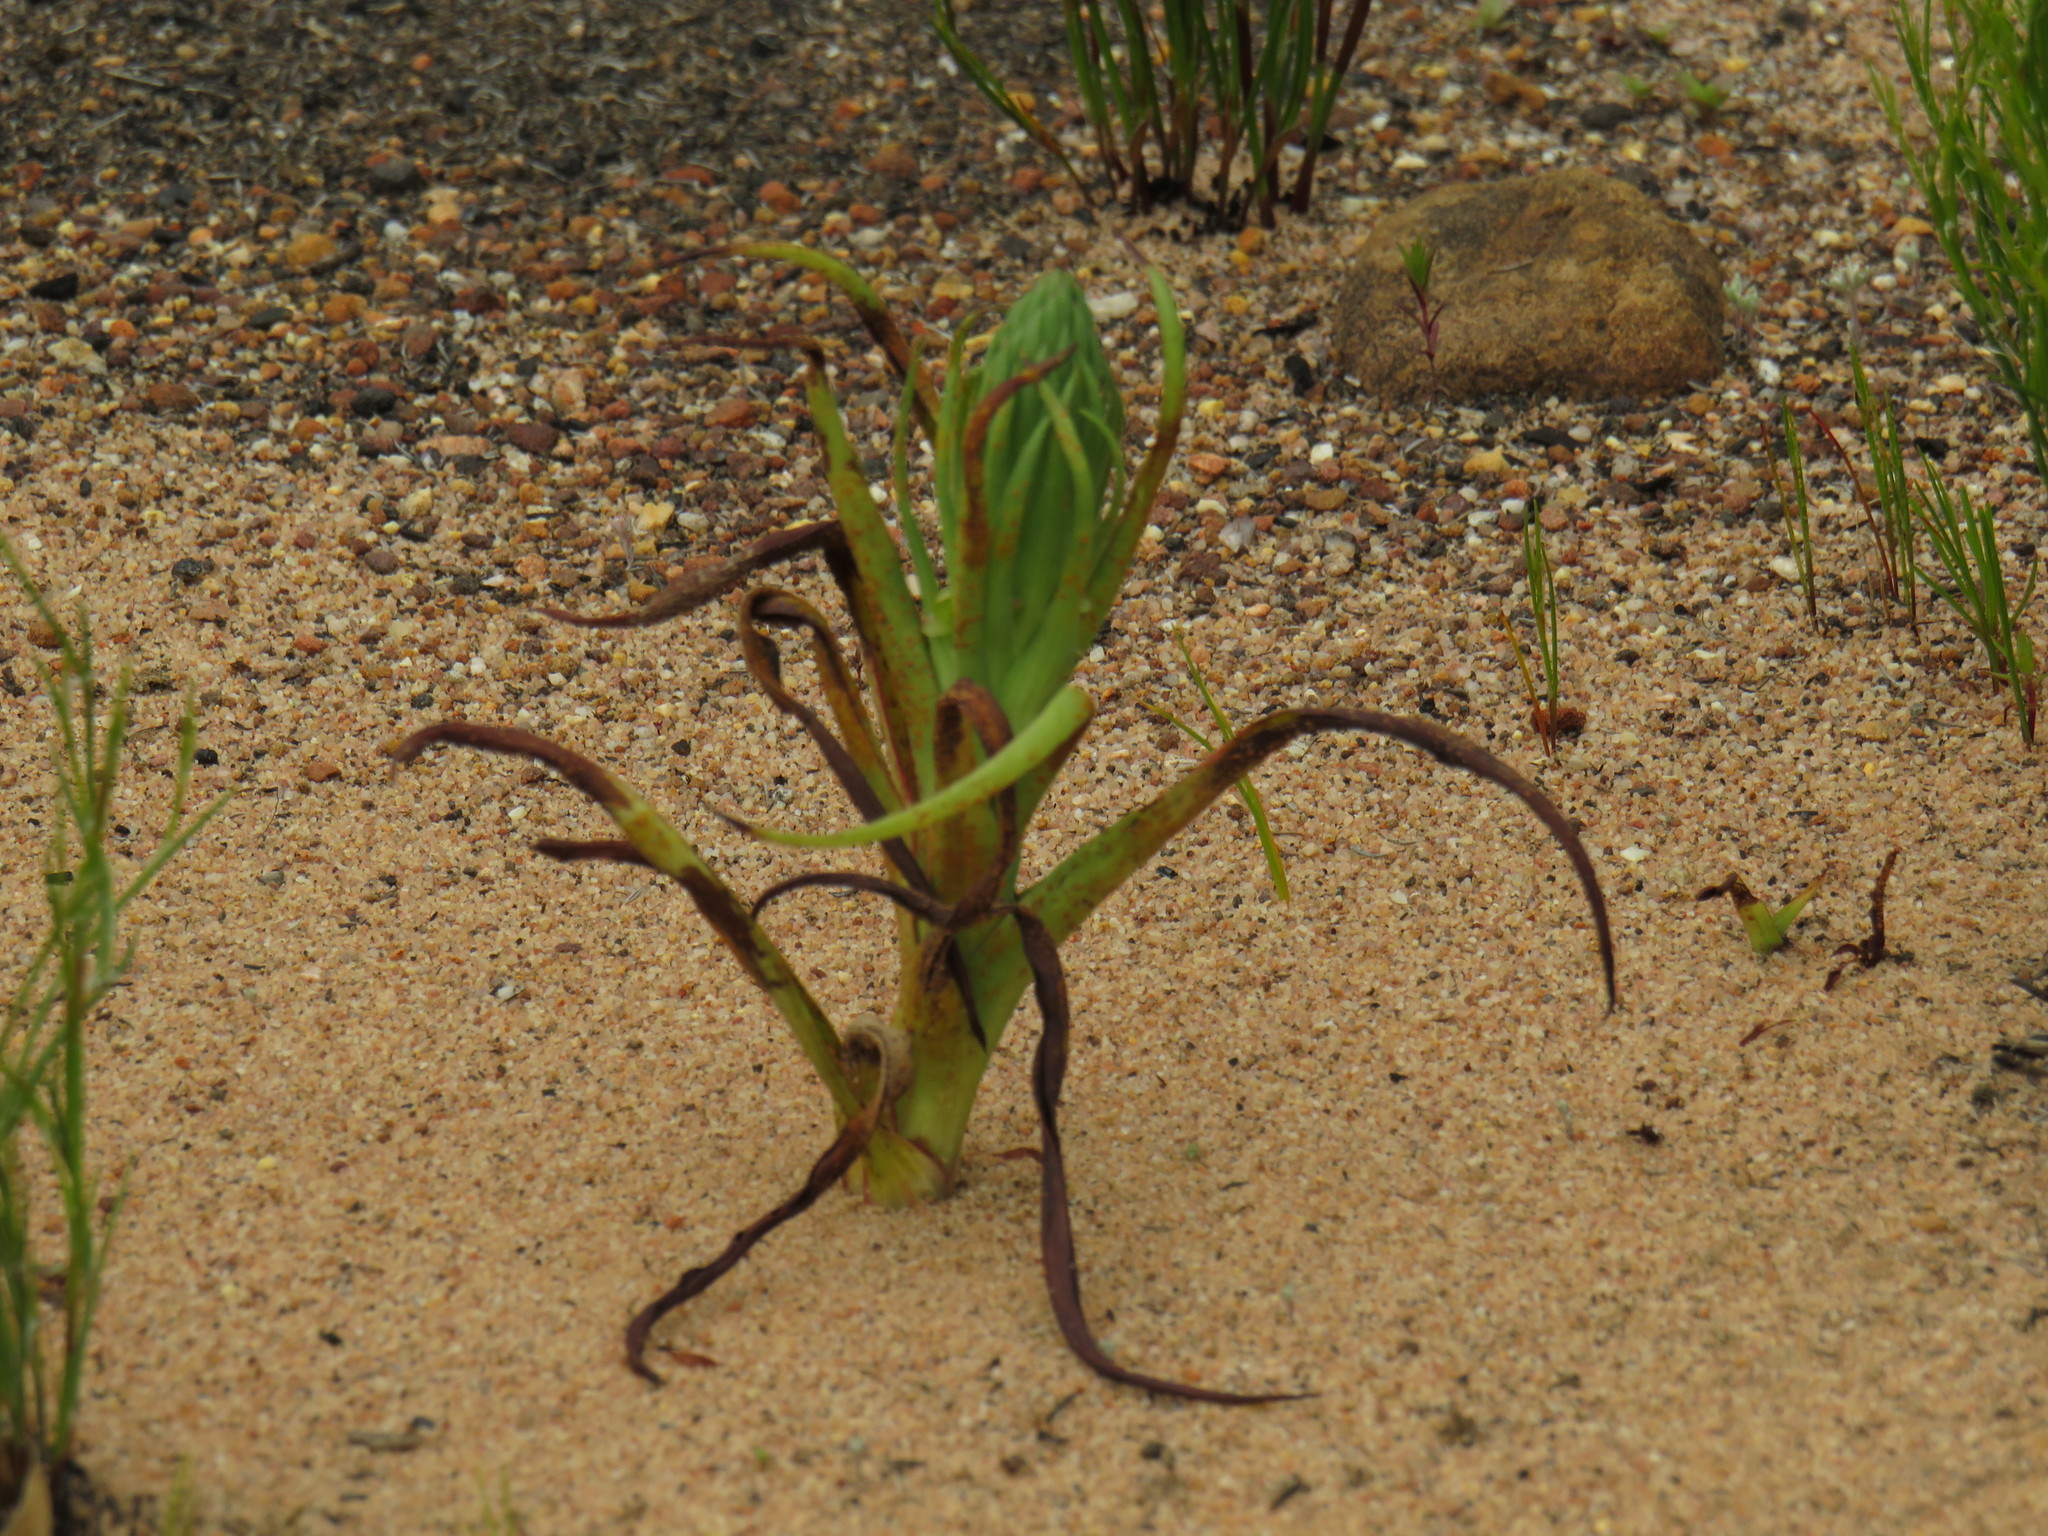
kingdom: Plantae
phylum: Tracheophyta
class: Liliopsida
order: Asparagales
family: Orchidaceae
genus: Disa
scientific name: Disa bracteata
